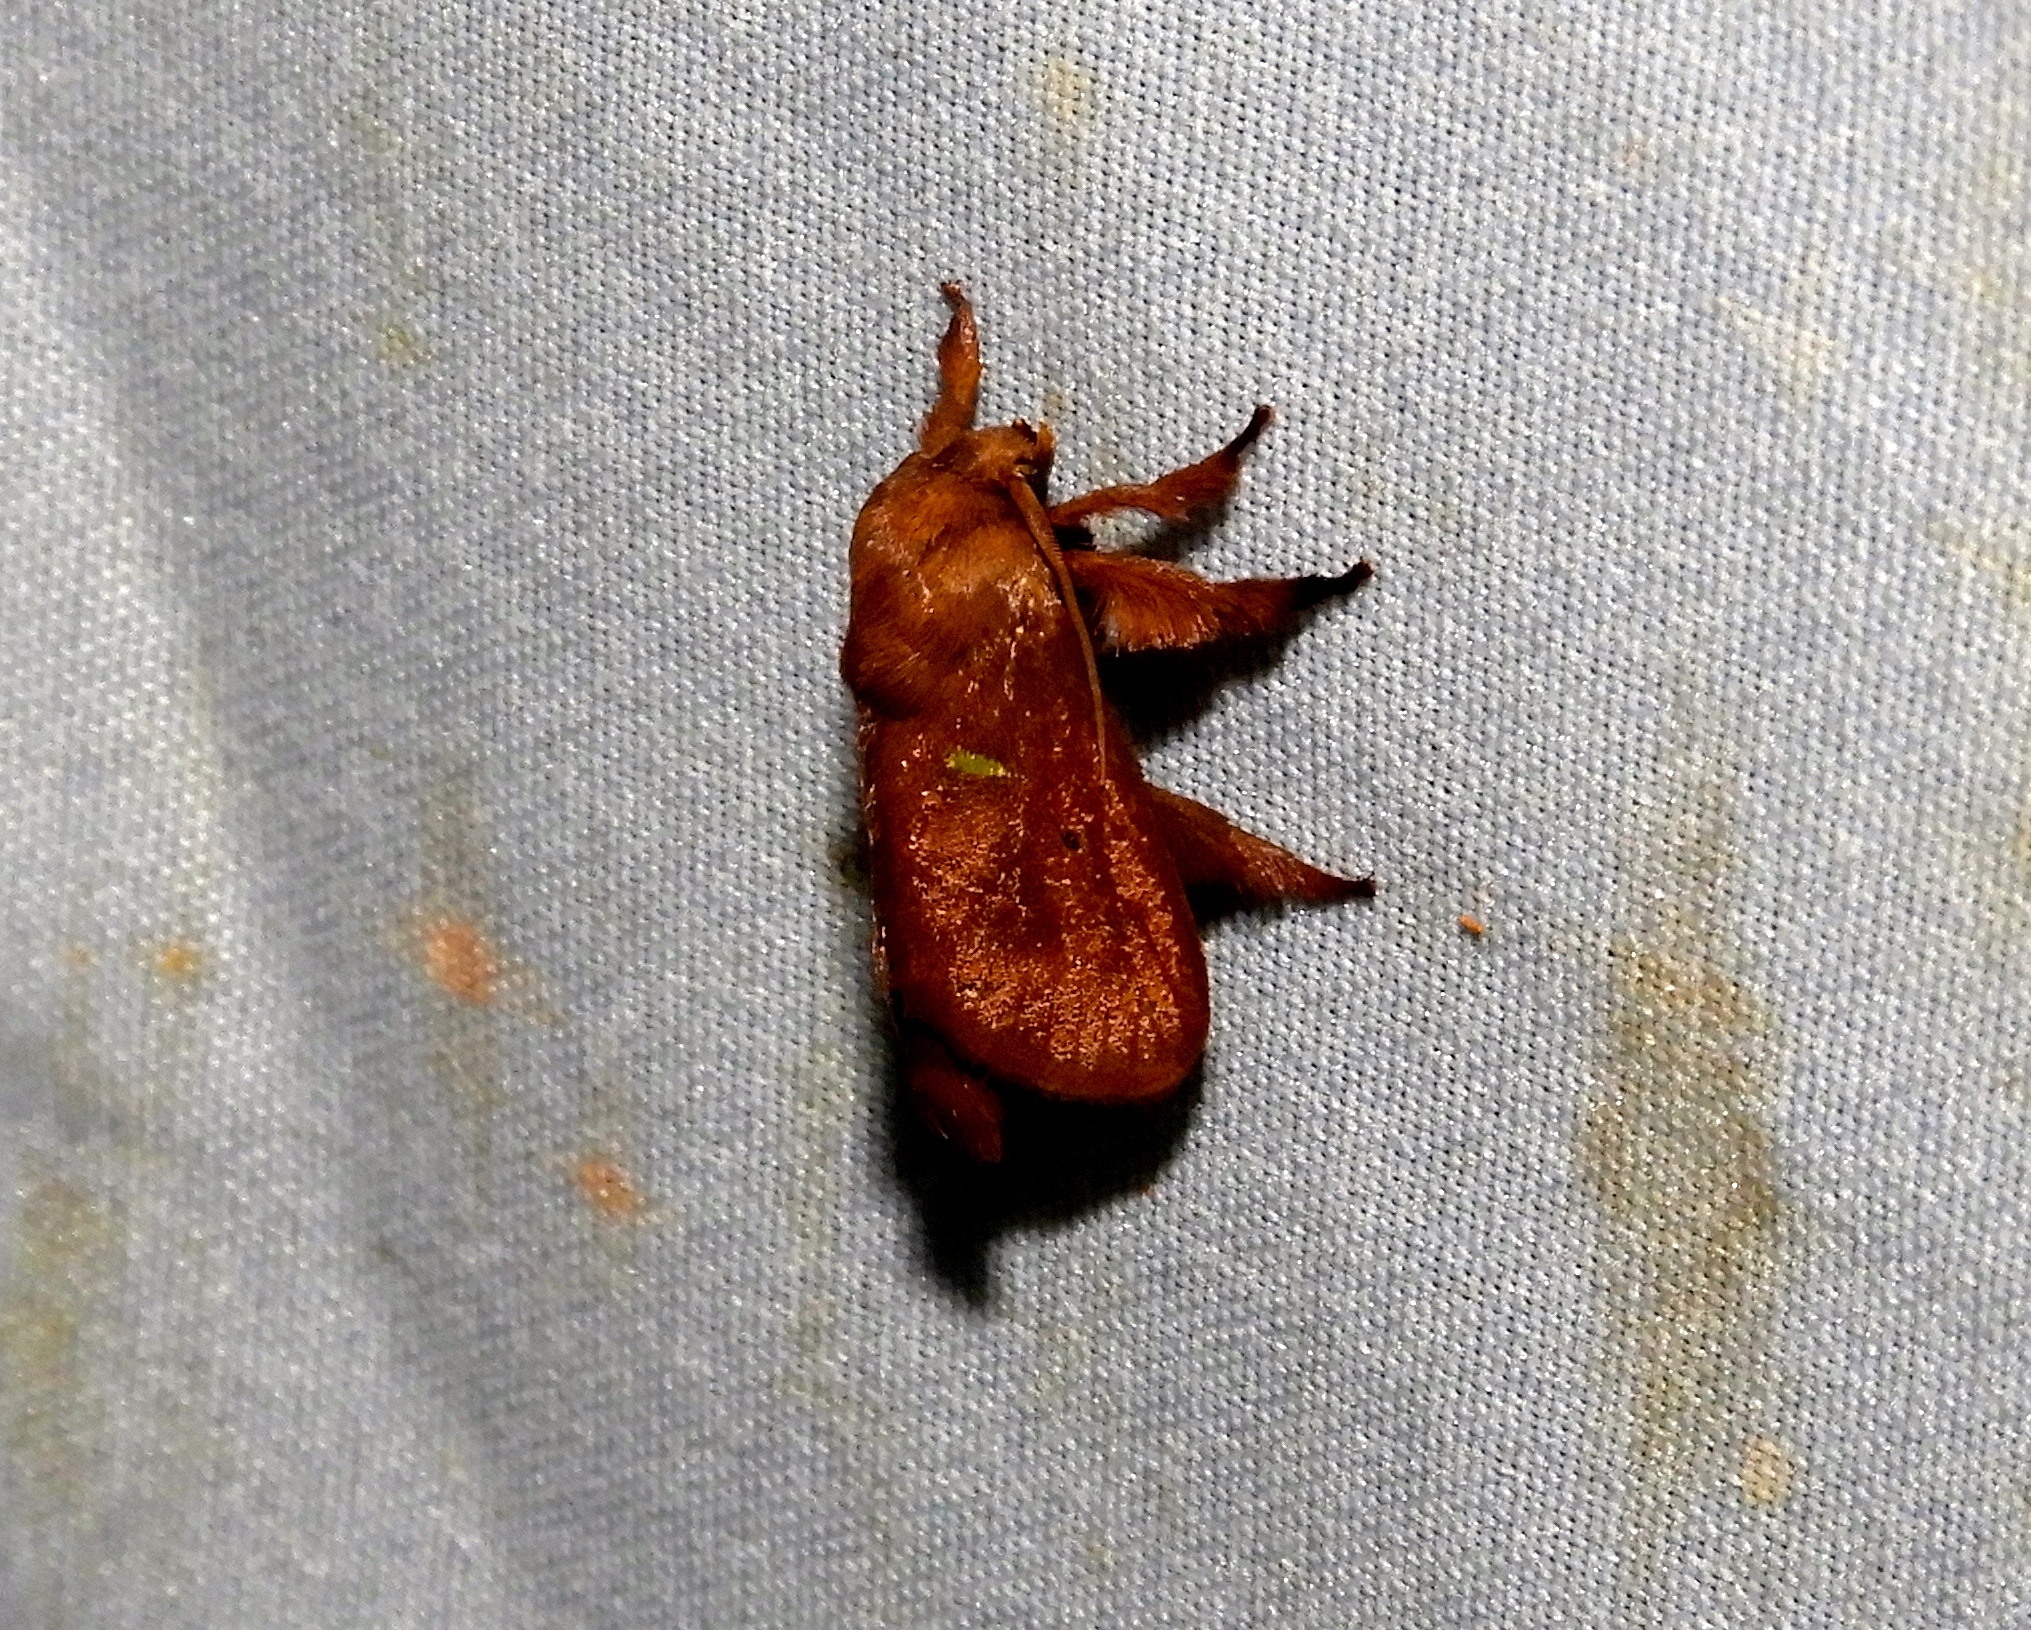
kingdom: Animalia
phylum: Arthropoda
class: Insecta
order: Lepidoptera
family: Limacodidae
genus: Euclea
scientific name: Euclea norba
